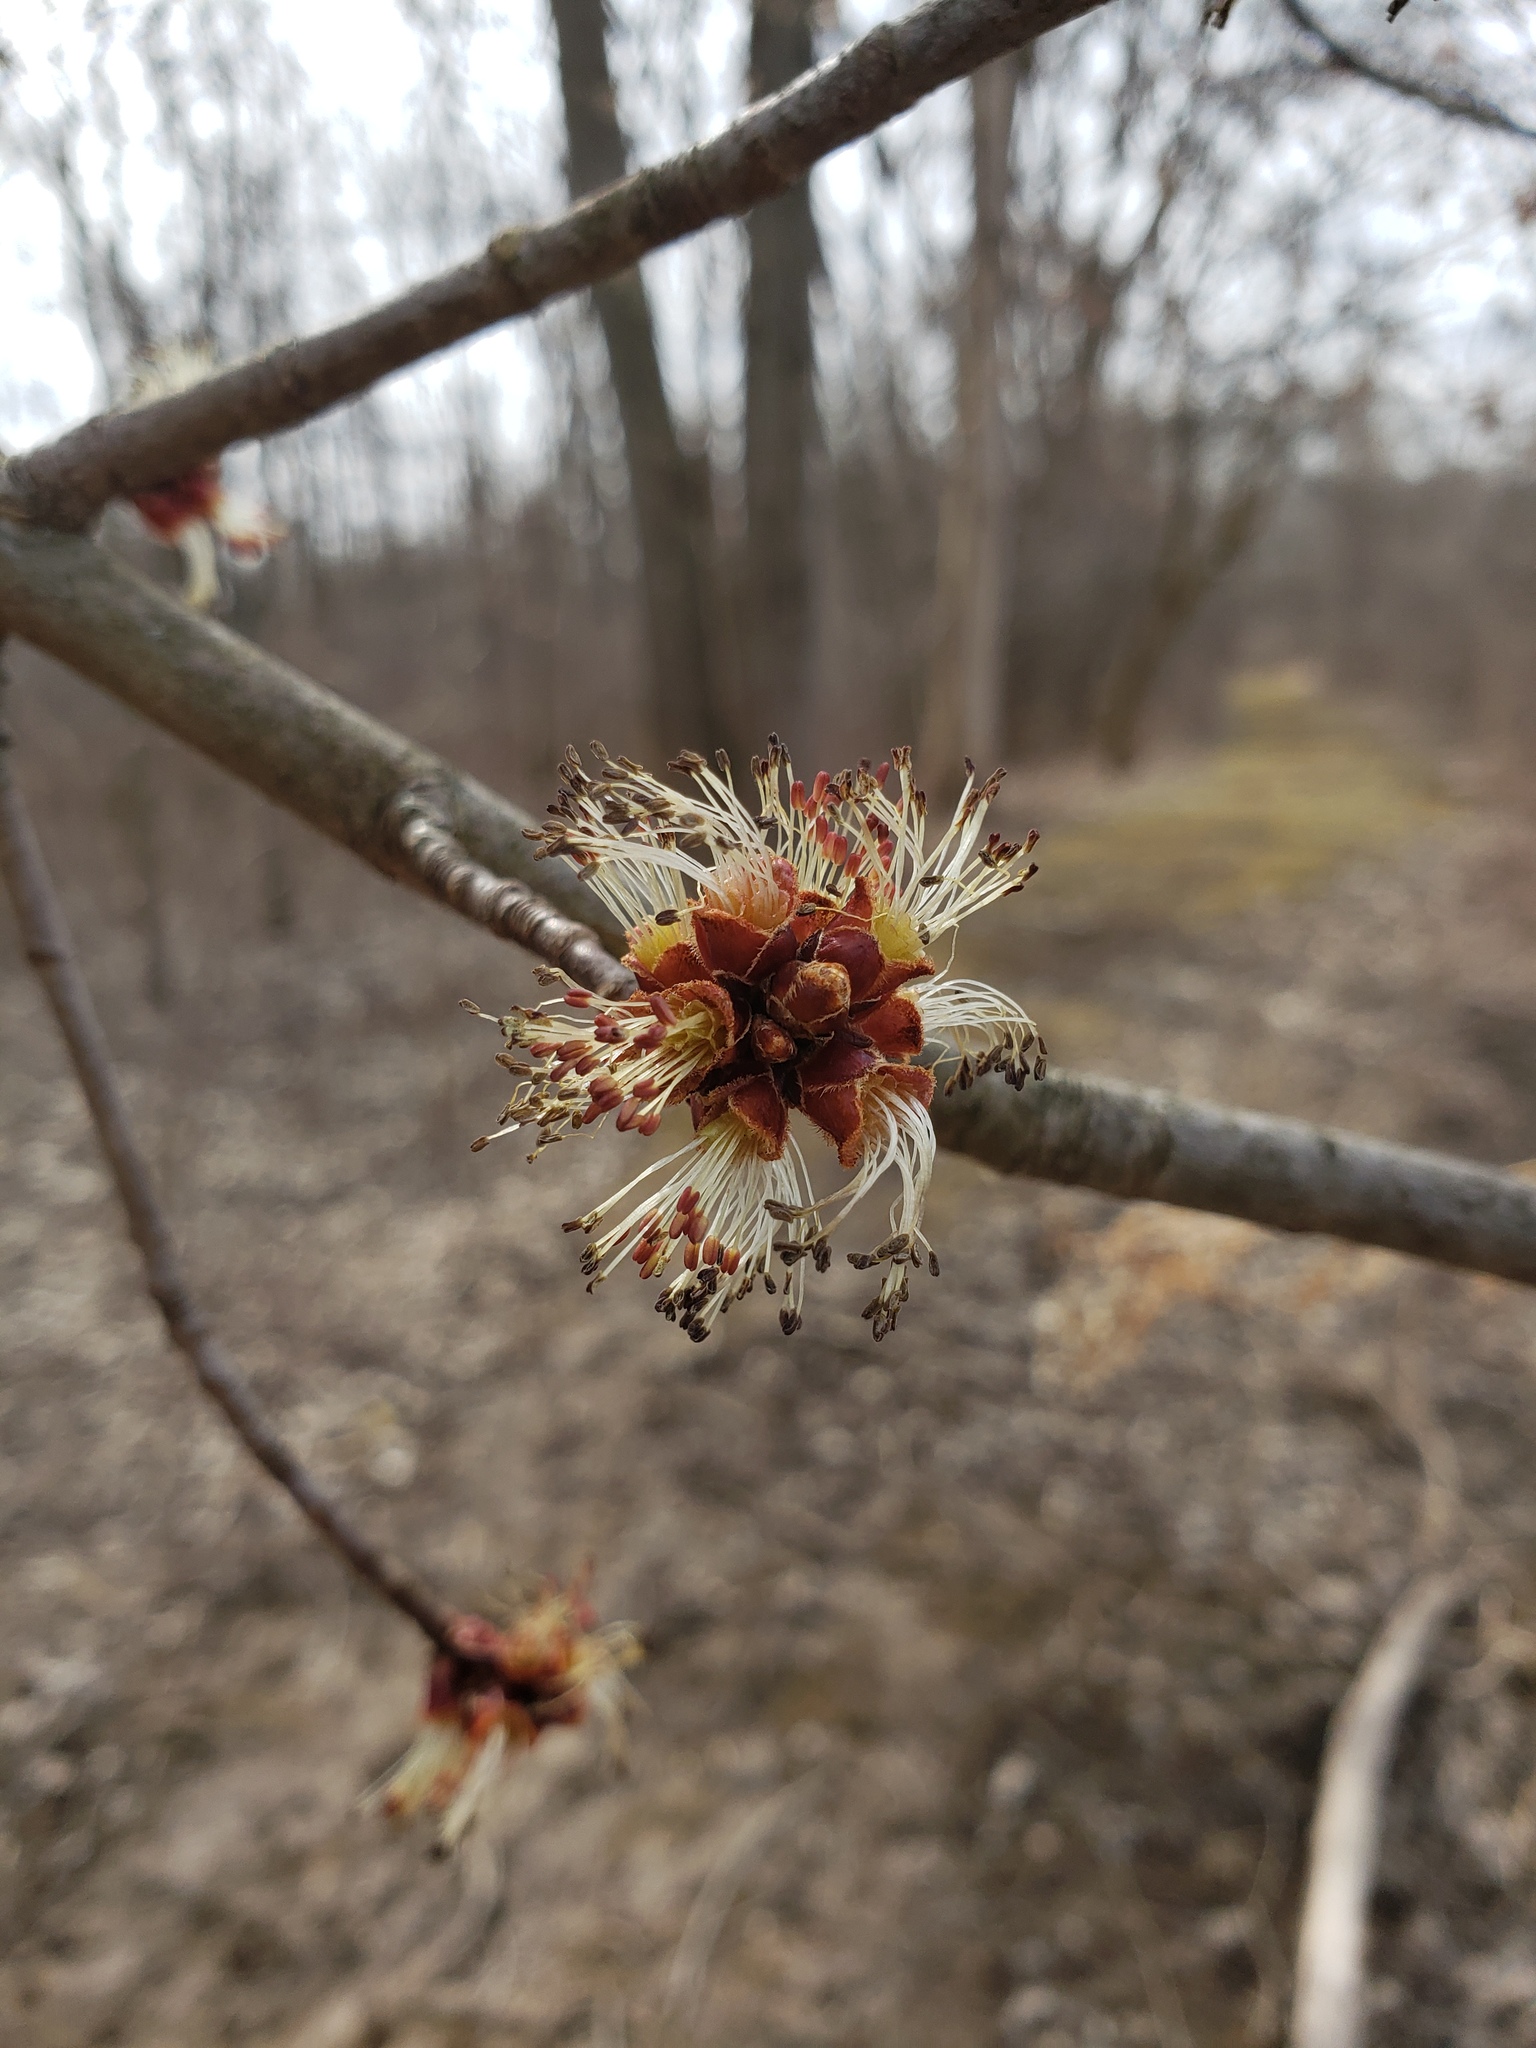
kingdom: Plantae
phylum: Tracheophyta
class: Magnoliopsida
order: Sapindales
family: Sapindaceae
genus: Acer
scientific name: Acer saccharinum
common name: Silver maple
